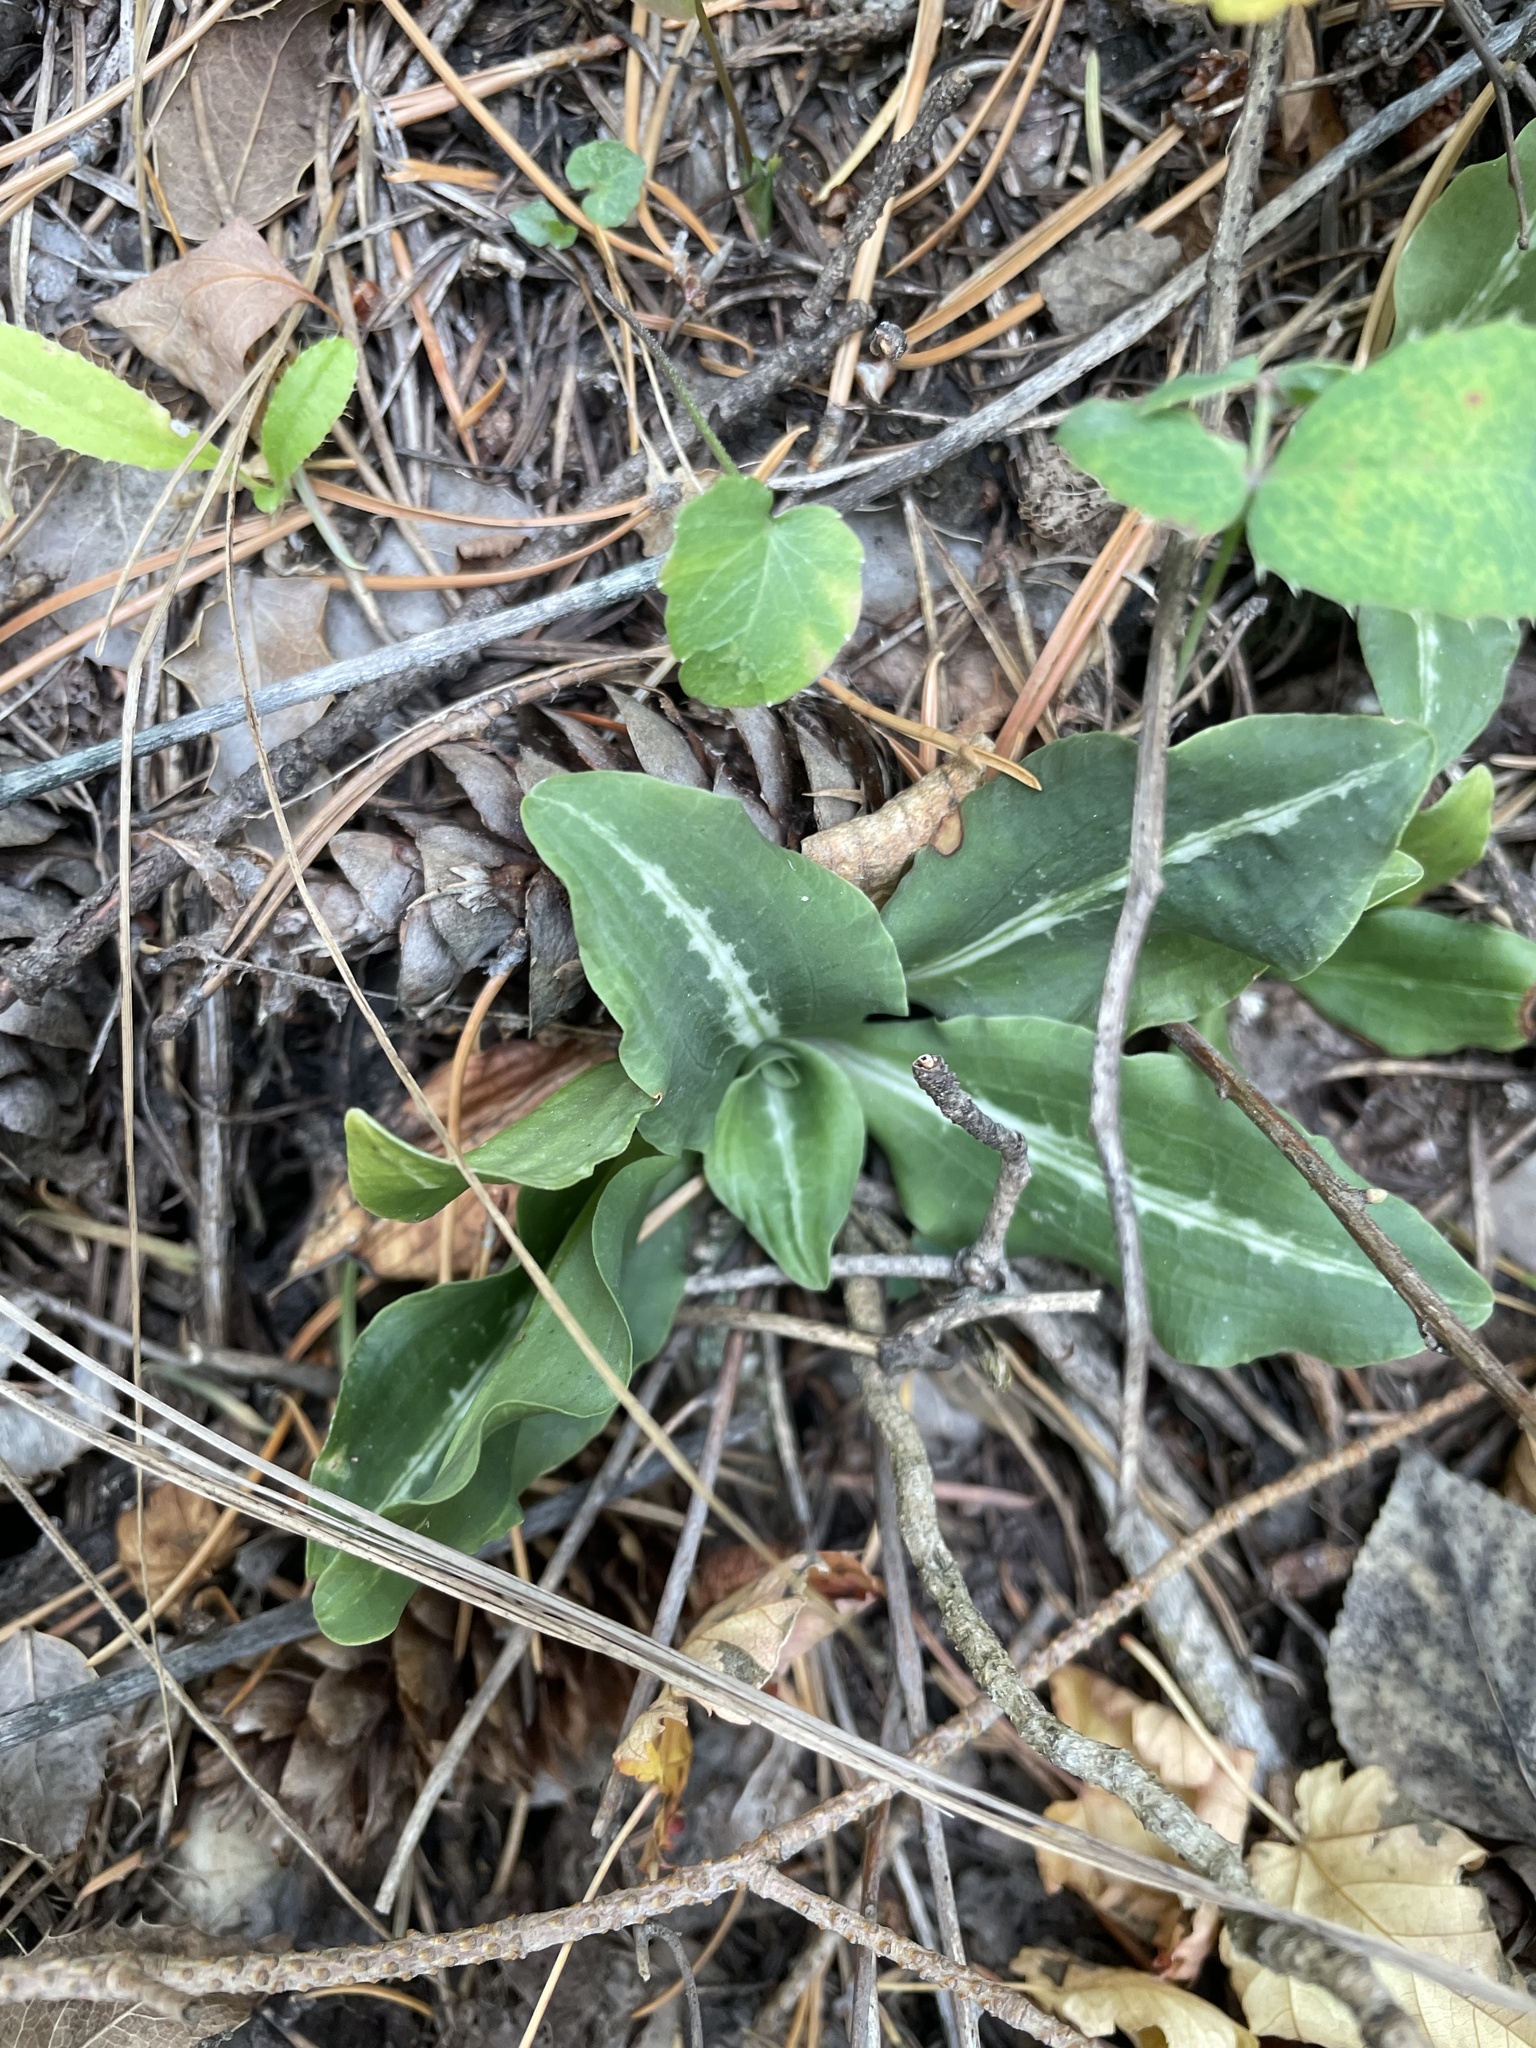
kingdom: Plantae
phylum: Tracheophyta
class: Liliopsida
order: Asparagales
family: Orchidaceae
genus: Goodyera
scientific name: Goodyera oblongifolia
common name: Giant rattlesnake-plantain
